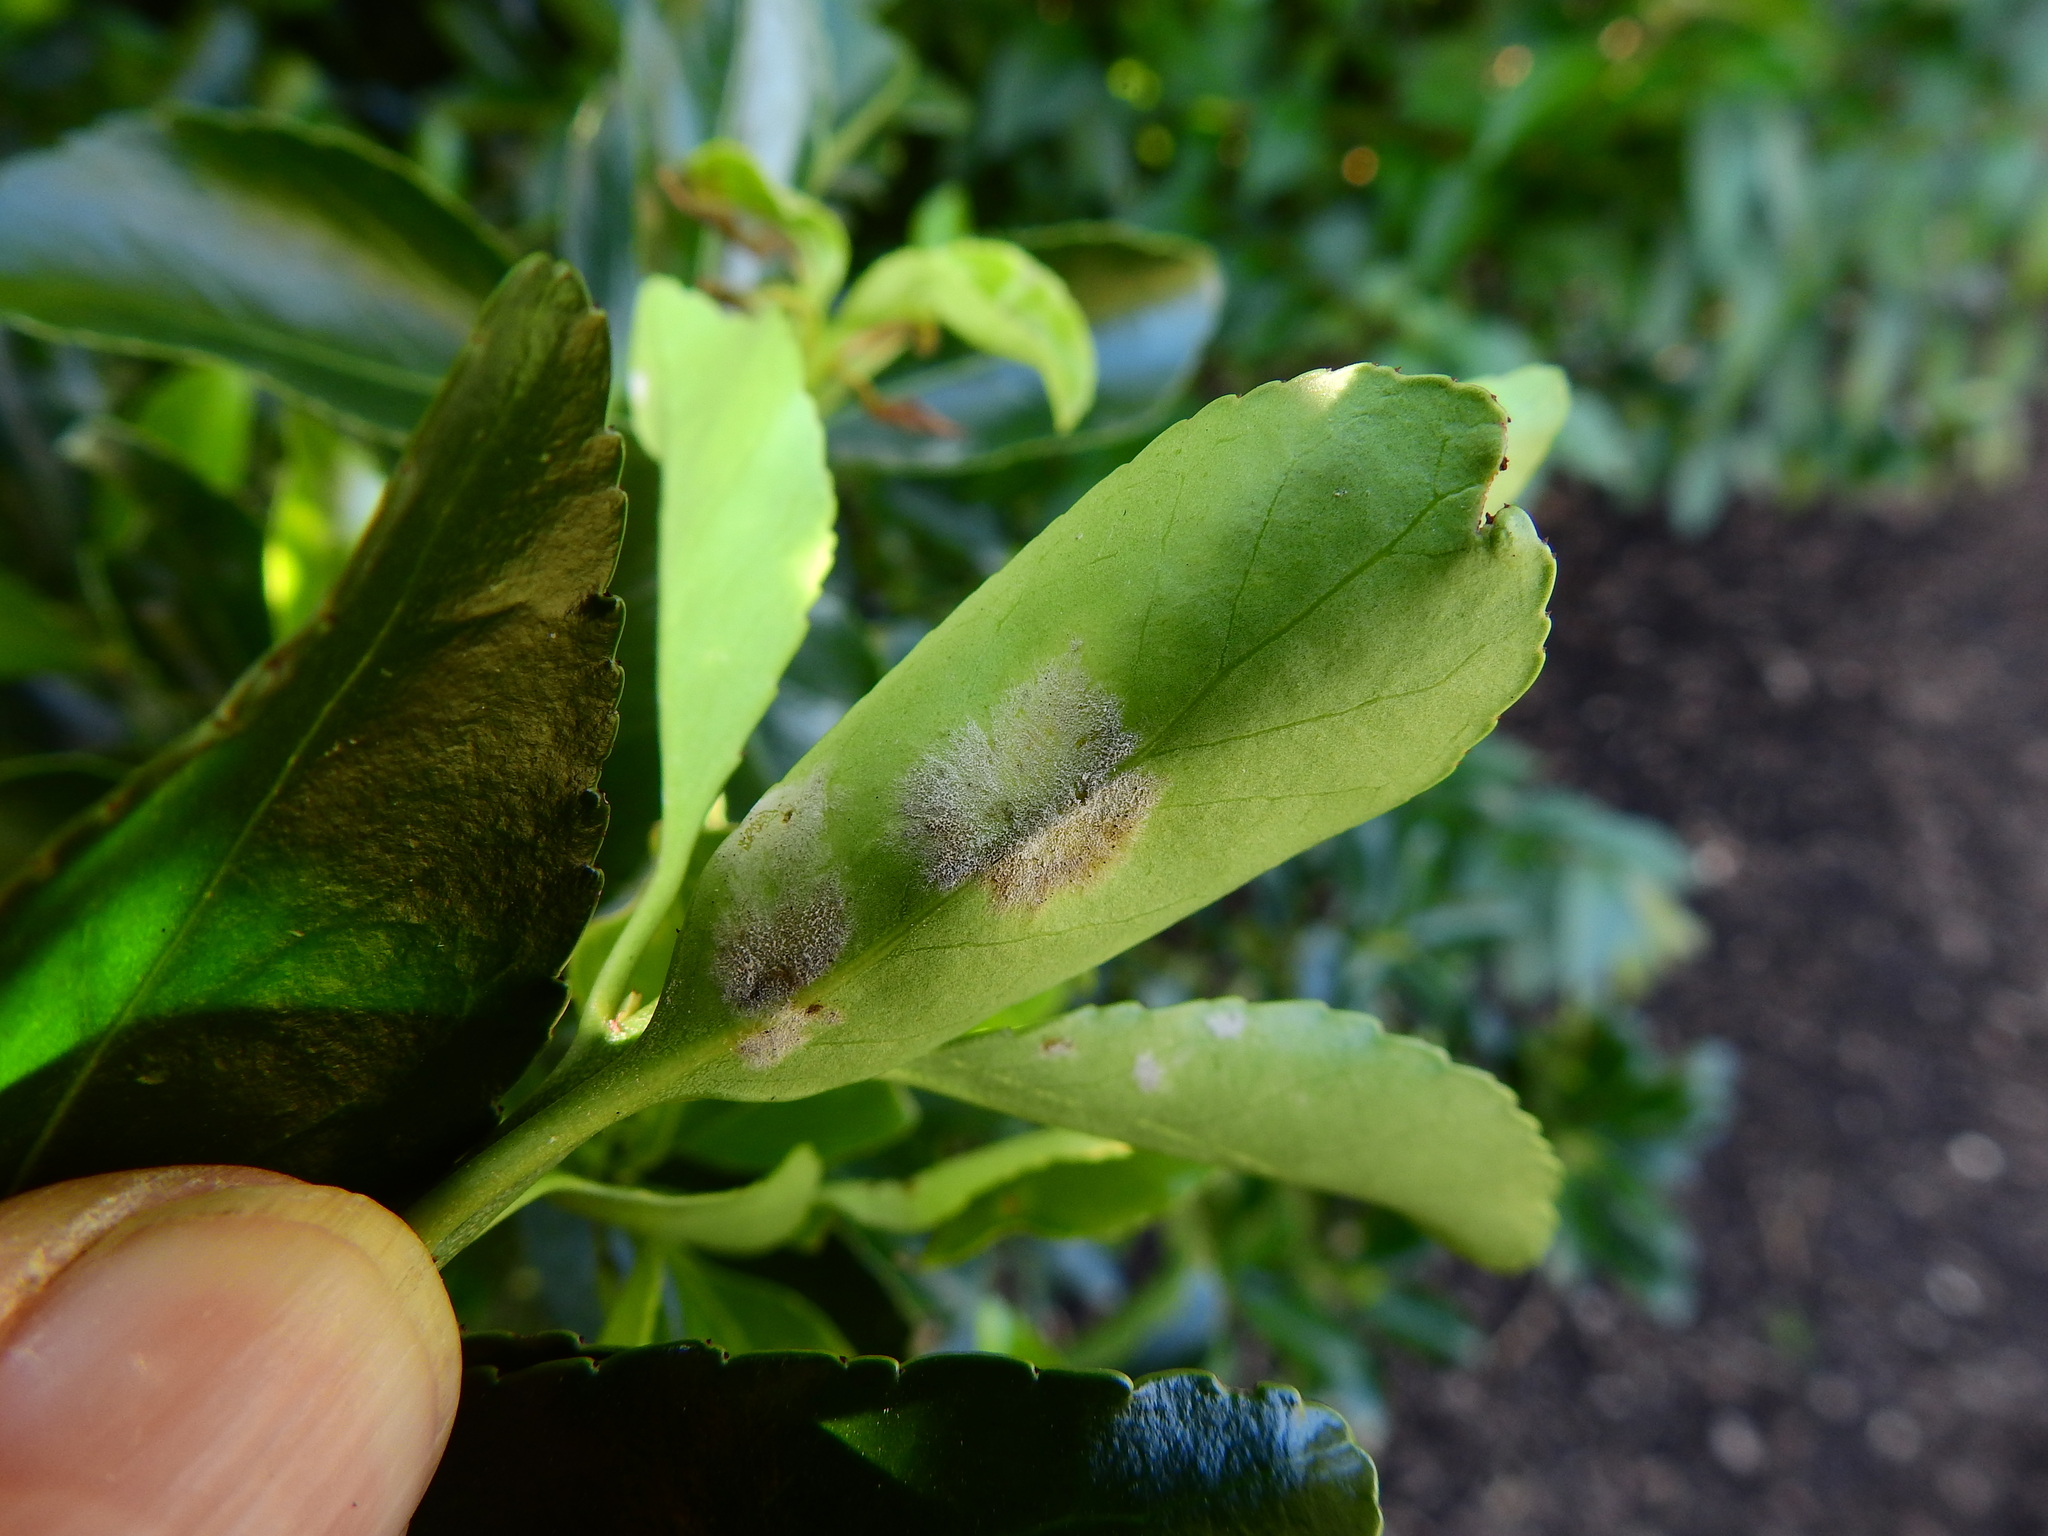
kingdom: Fungi
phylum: Ascomycota
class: Leotiomycetes
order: Helotiales
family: Erysiphaceae
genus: Erysiphe
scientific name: Erysiphe euonymicola
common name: Spindletree mildew
